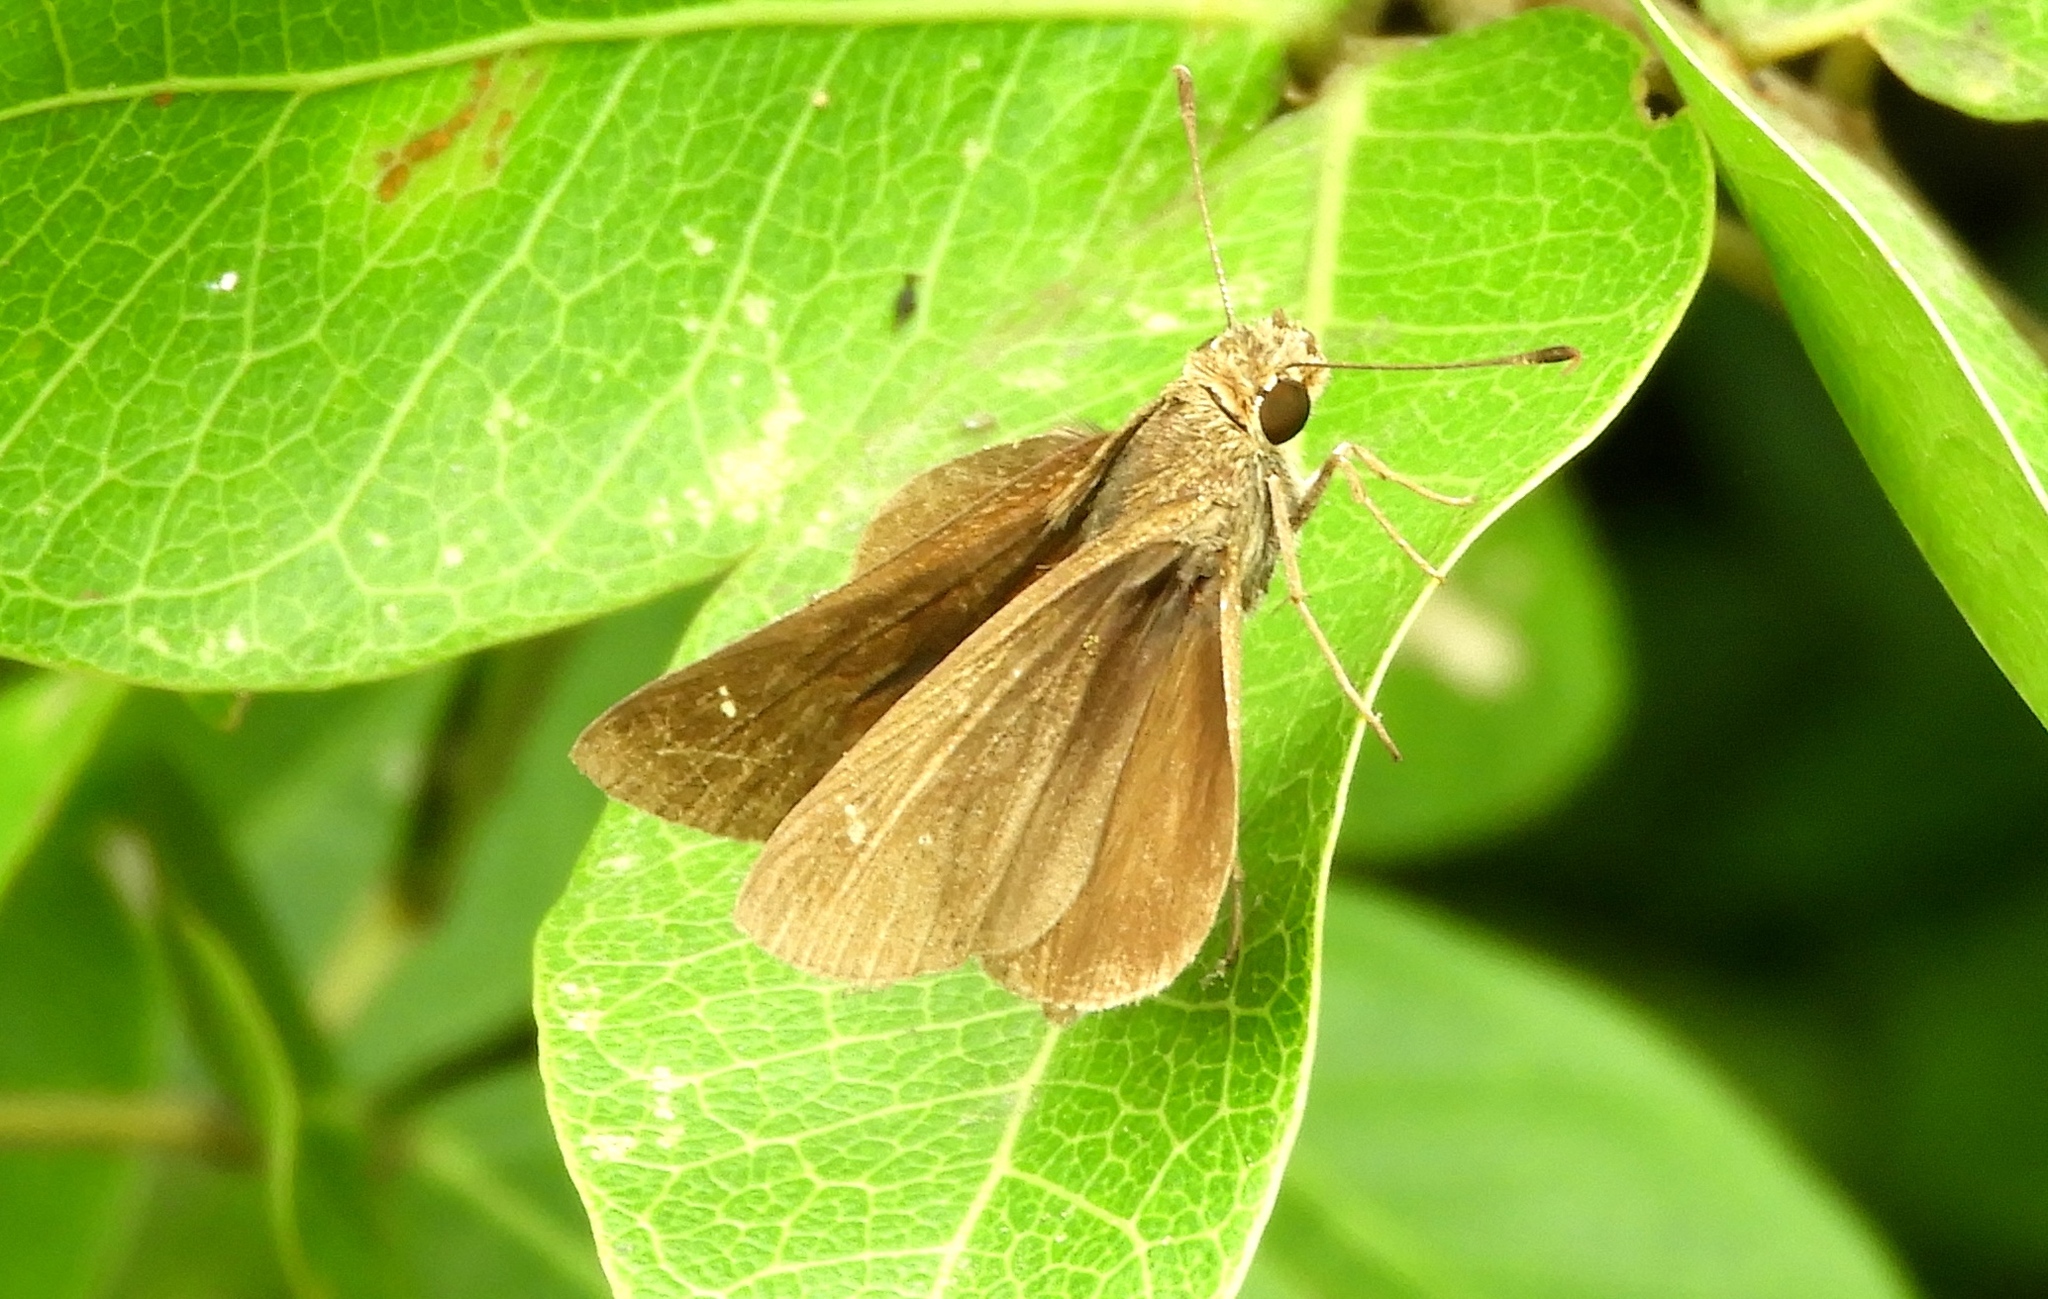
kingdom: Animalia
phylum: Arthropoda
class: Insecta
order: Lepidoptera
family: Hesperiidae
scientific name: Hesperiidae
